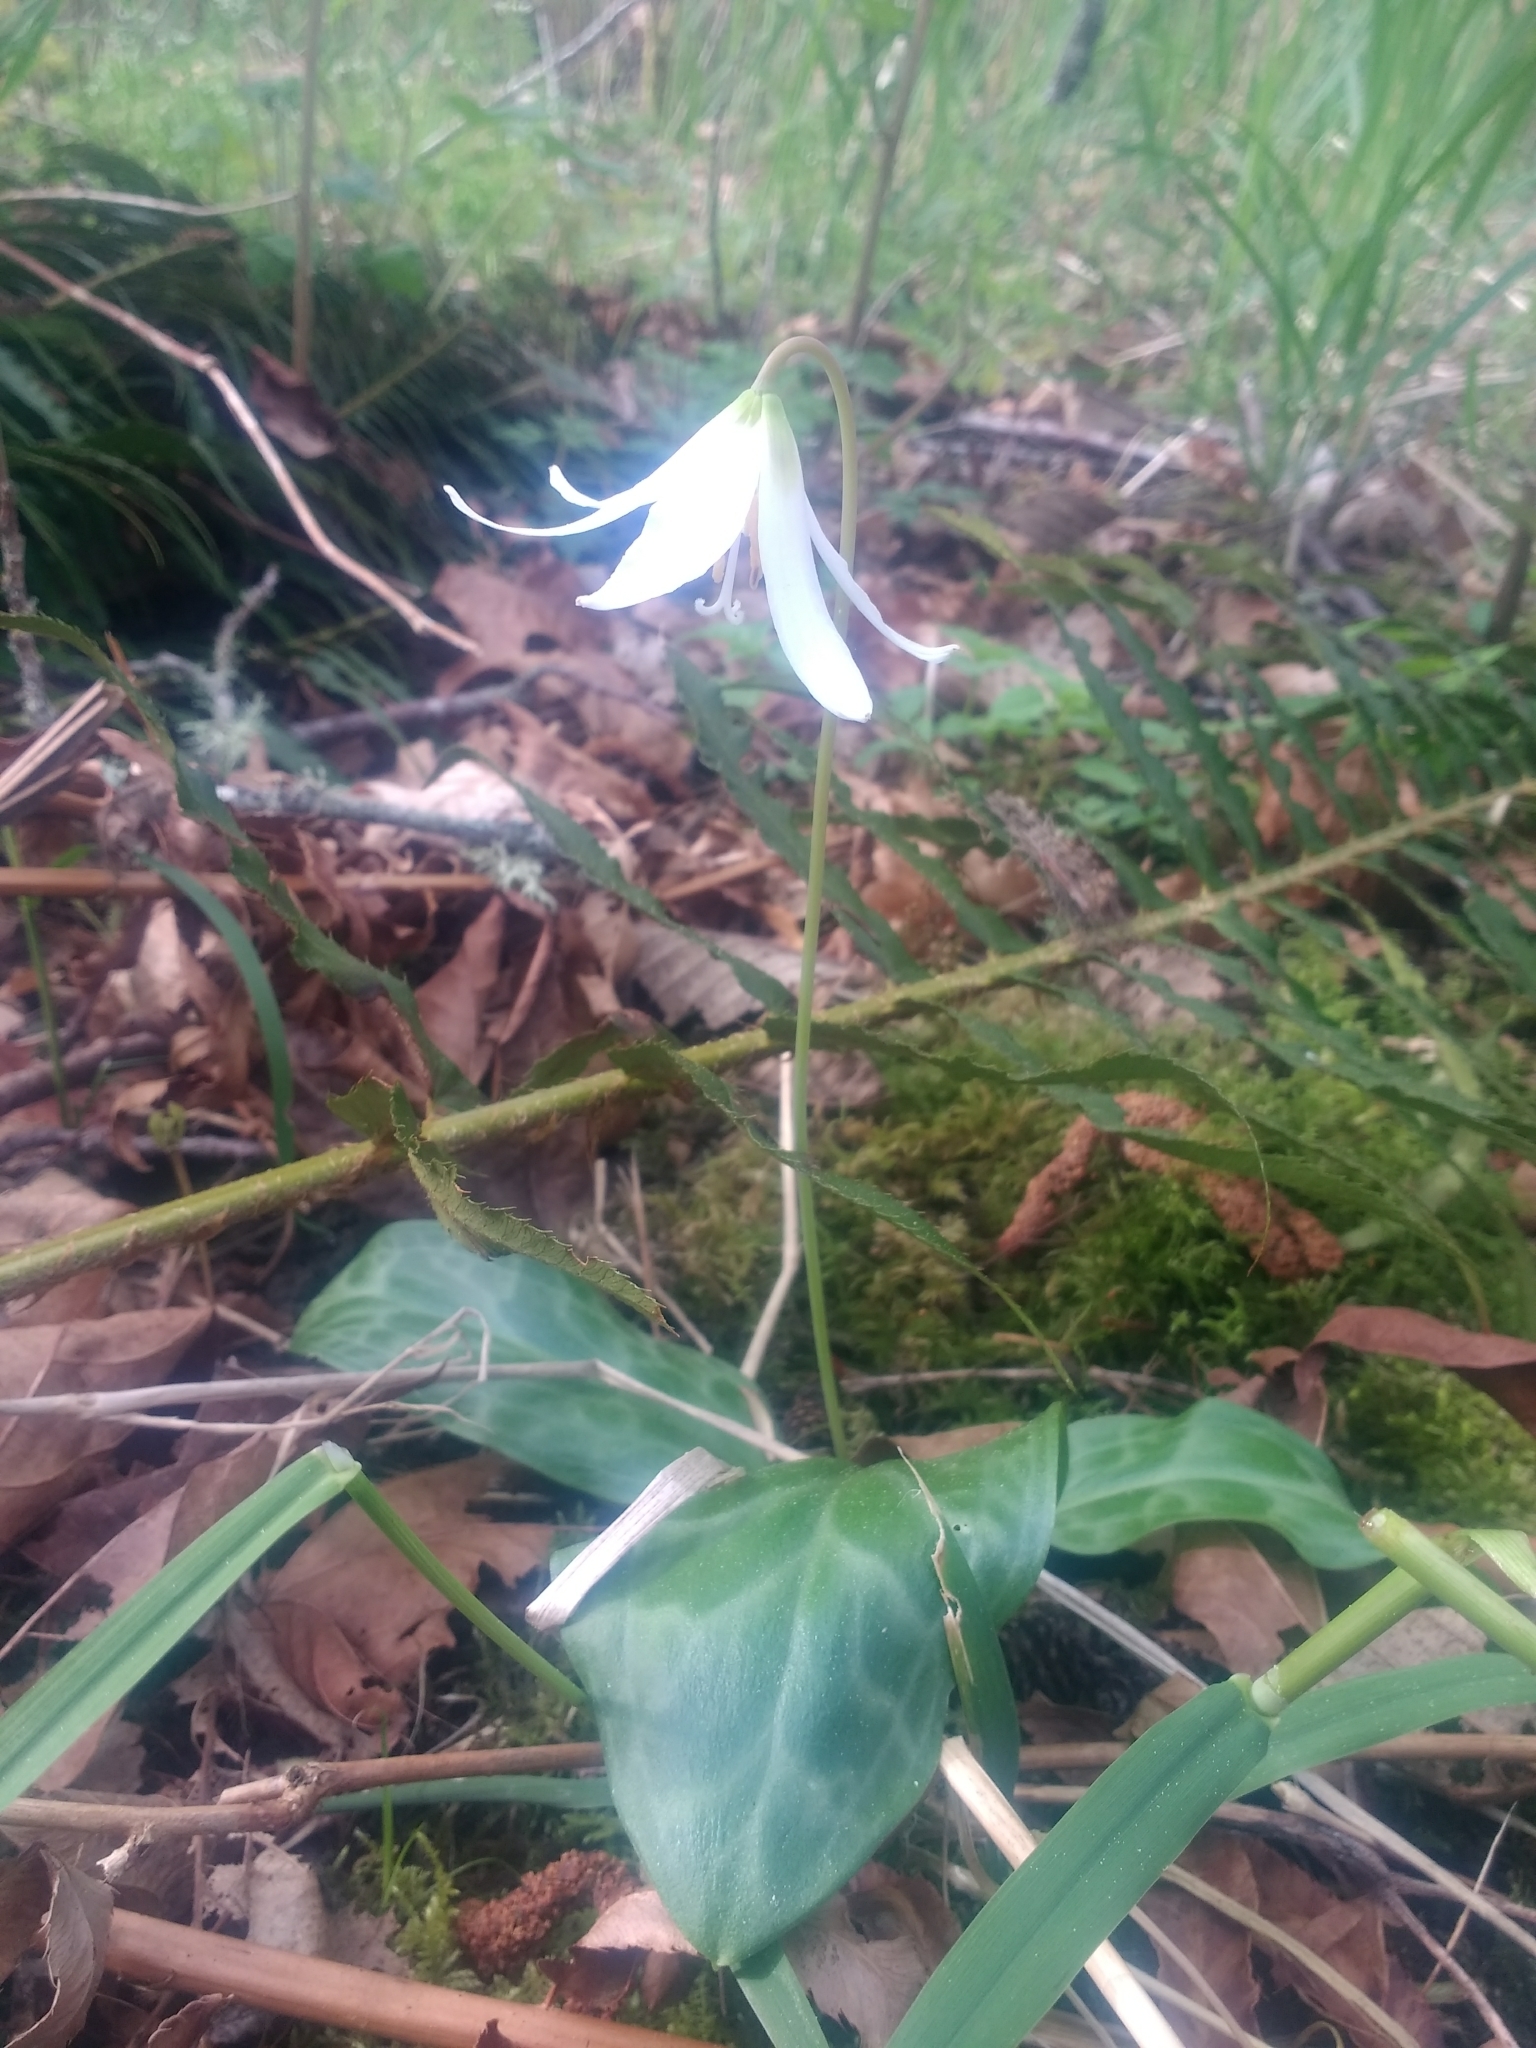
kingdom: Plantae
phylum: Tracheophyta
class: Liliopsida
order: Liliales
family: Liliaceae
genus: Erythronium
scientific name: Erythronium oregonum
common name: Giant adder's-tongue
